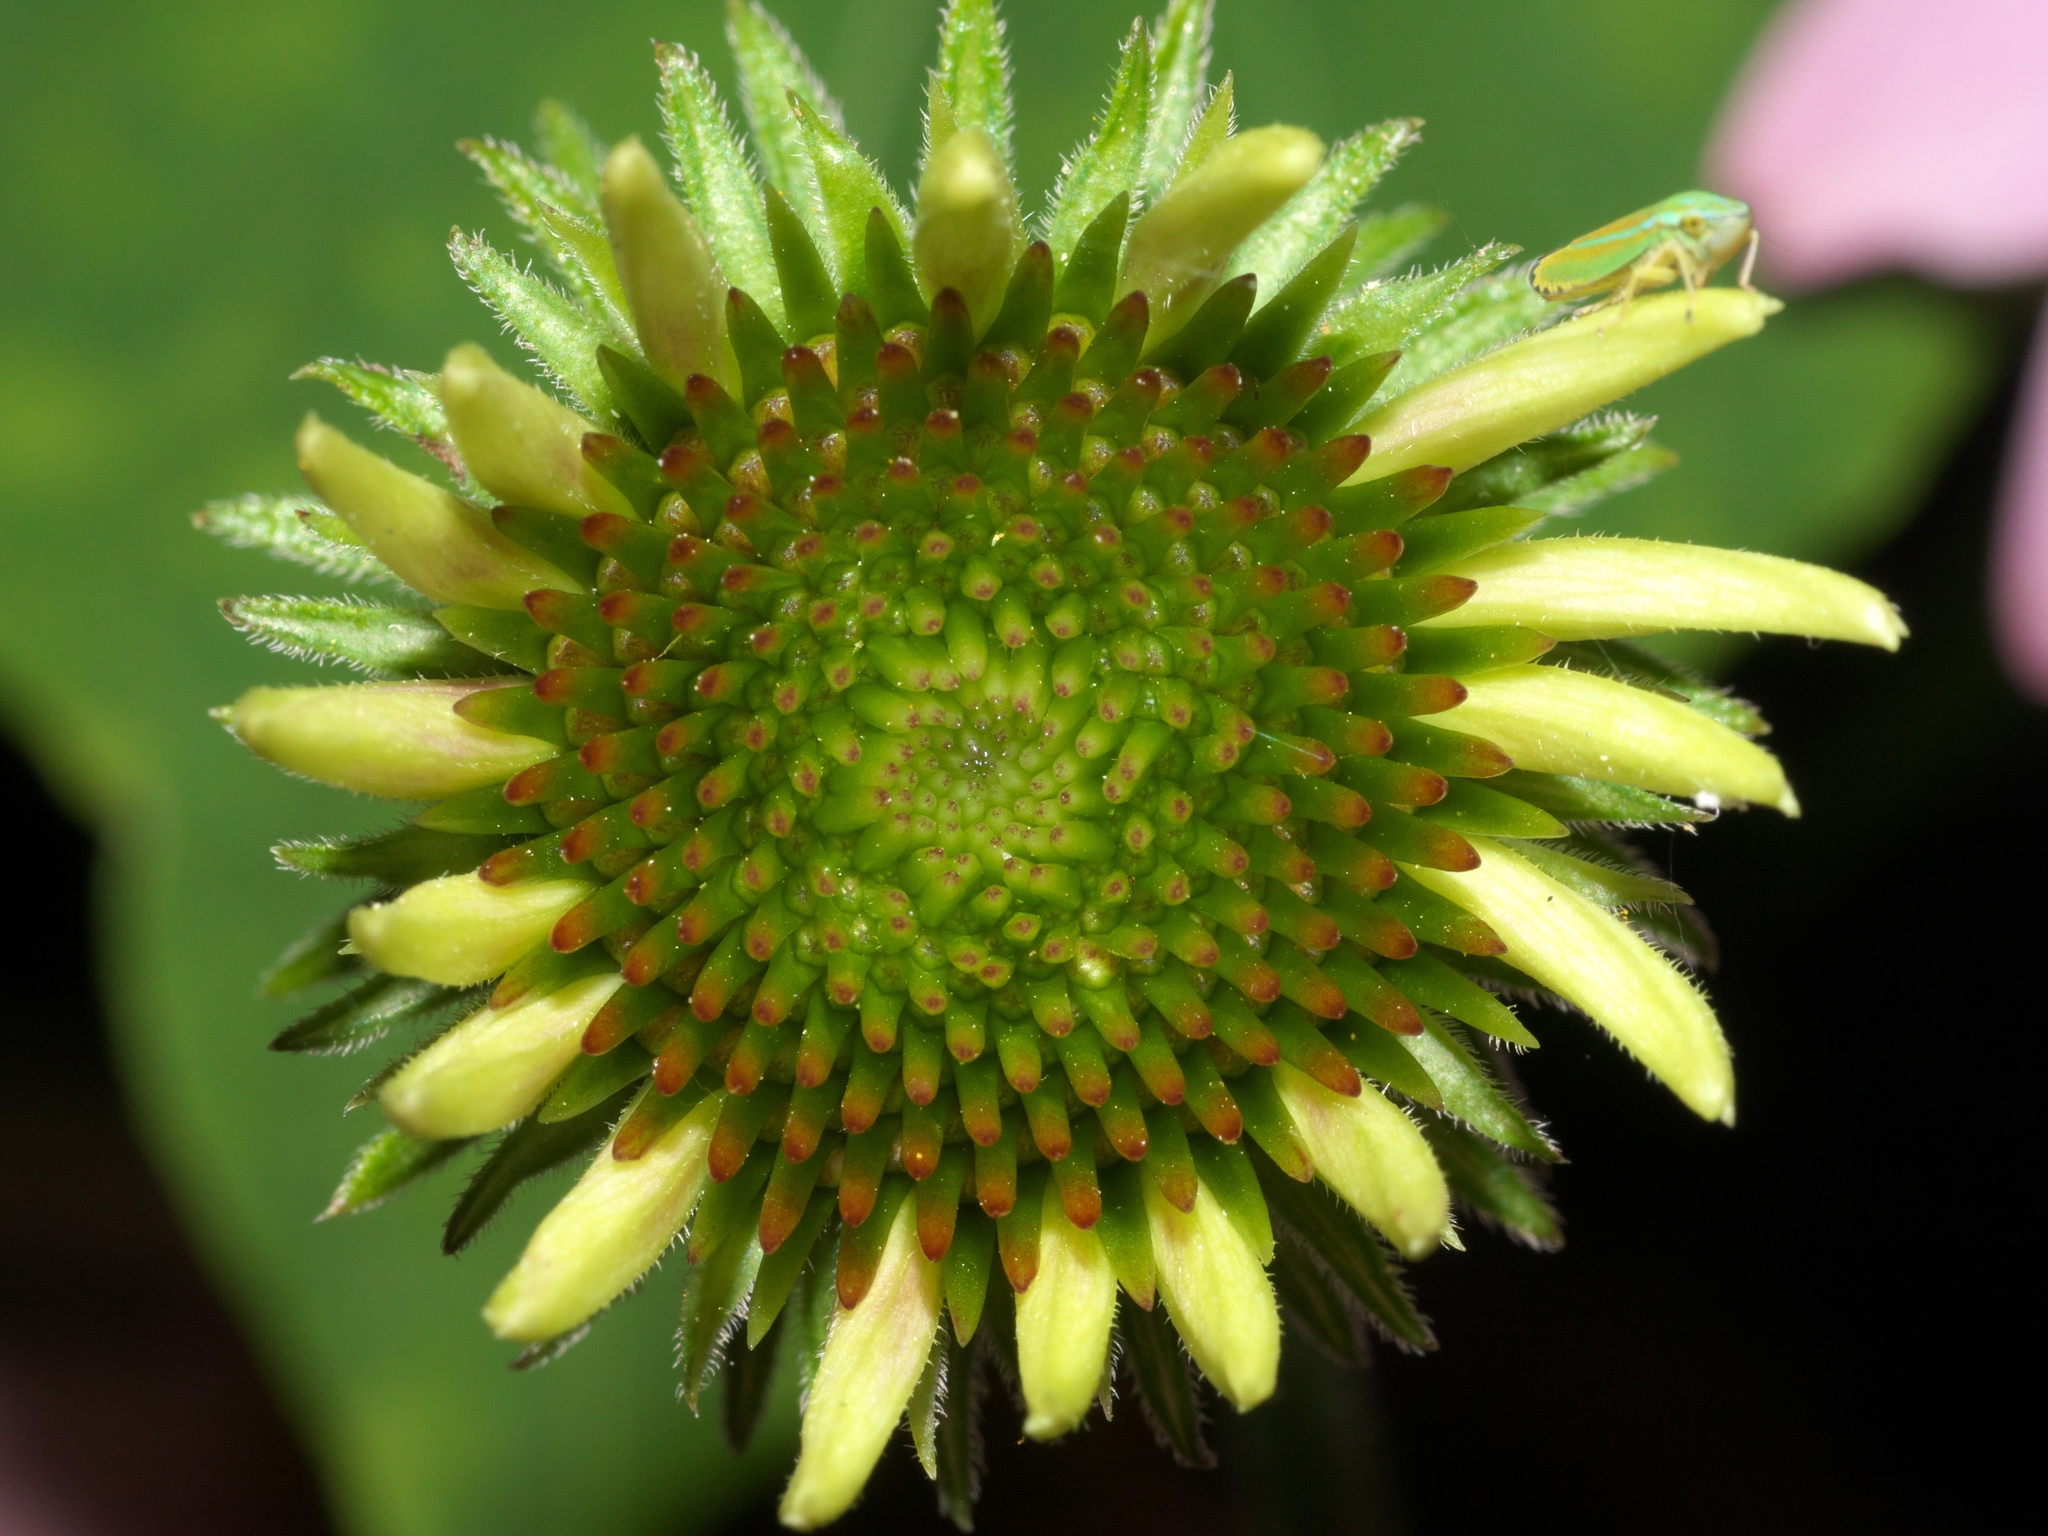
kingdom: Animalia
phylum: Arthropoda
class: Insecta
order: Hemiptera
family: Cicadellidae
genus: Graphocephala
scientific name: Graphocephala versuta
